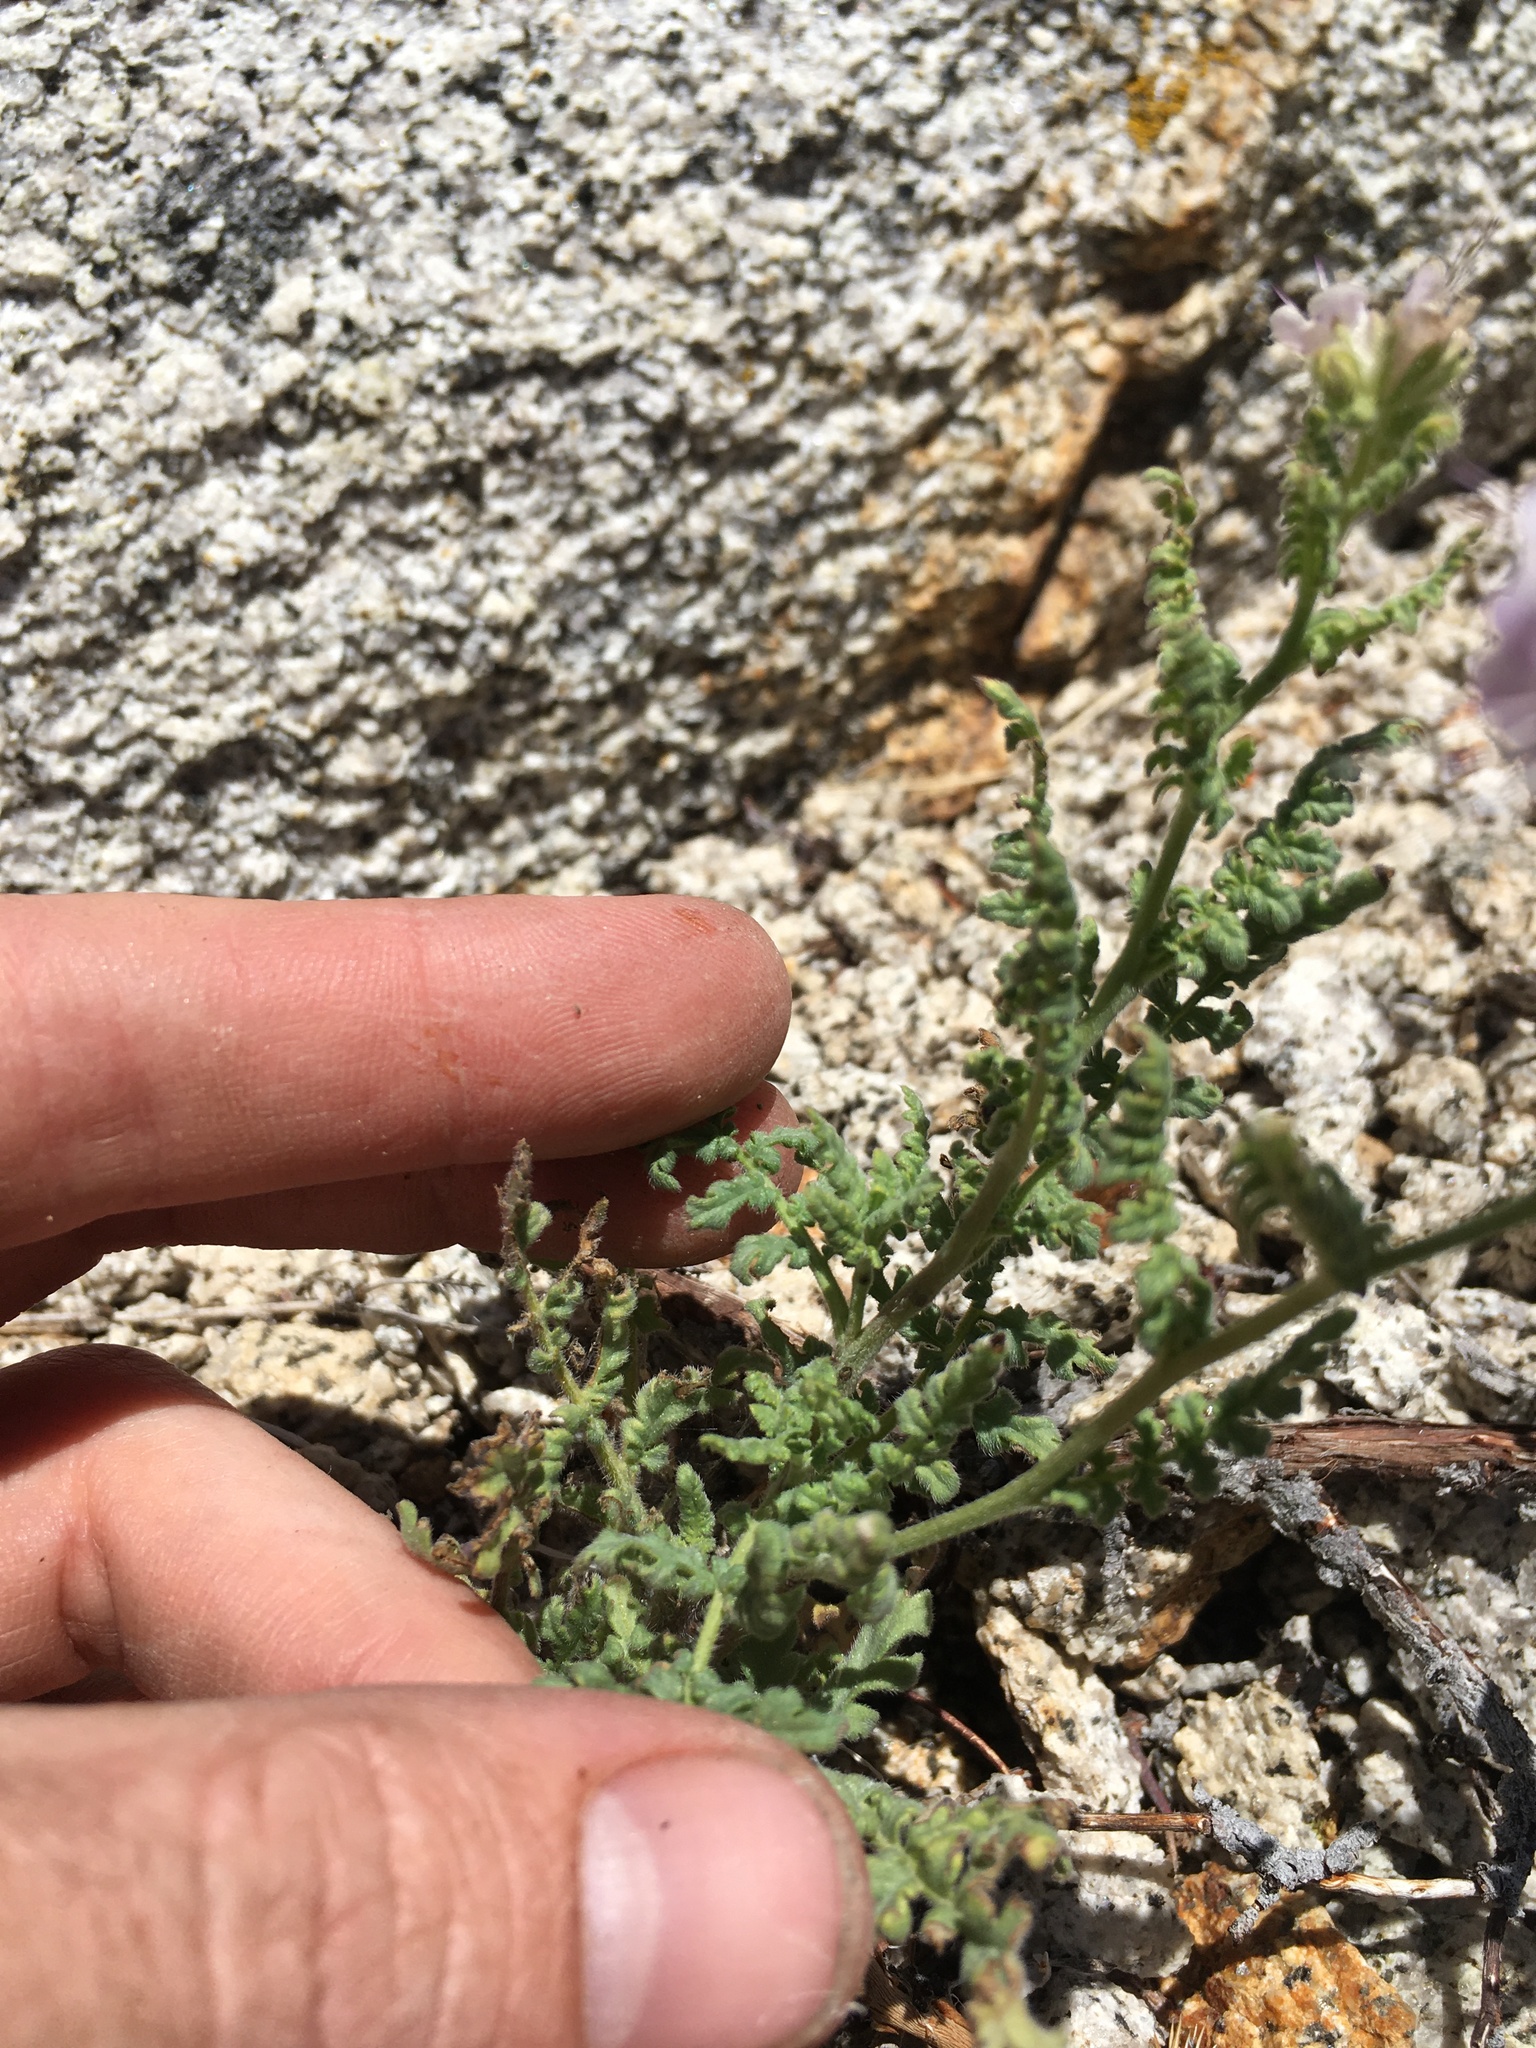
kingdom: Plantae
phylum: Tracheophyta
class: Magnoliopsida
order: Boraginales
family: Hydrophyllaceae
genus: Phacelia
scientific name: Phacelia ramosissima
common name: Branching phacelia
